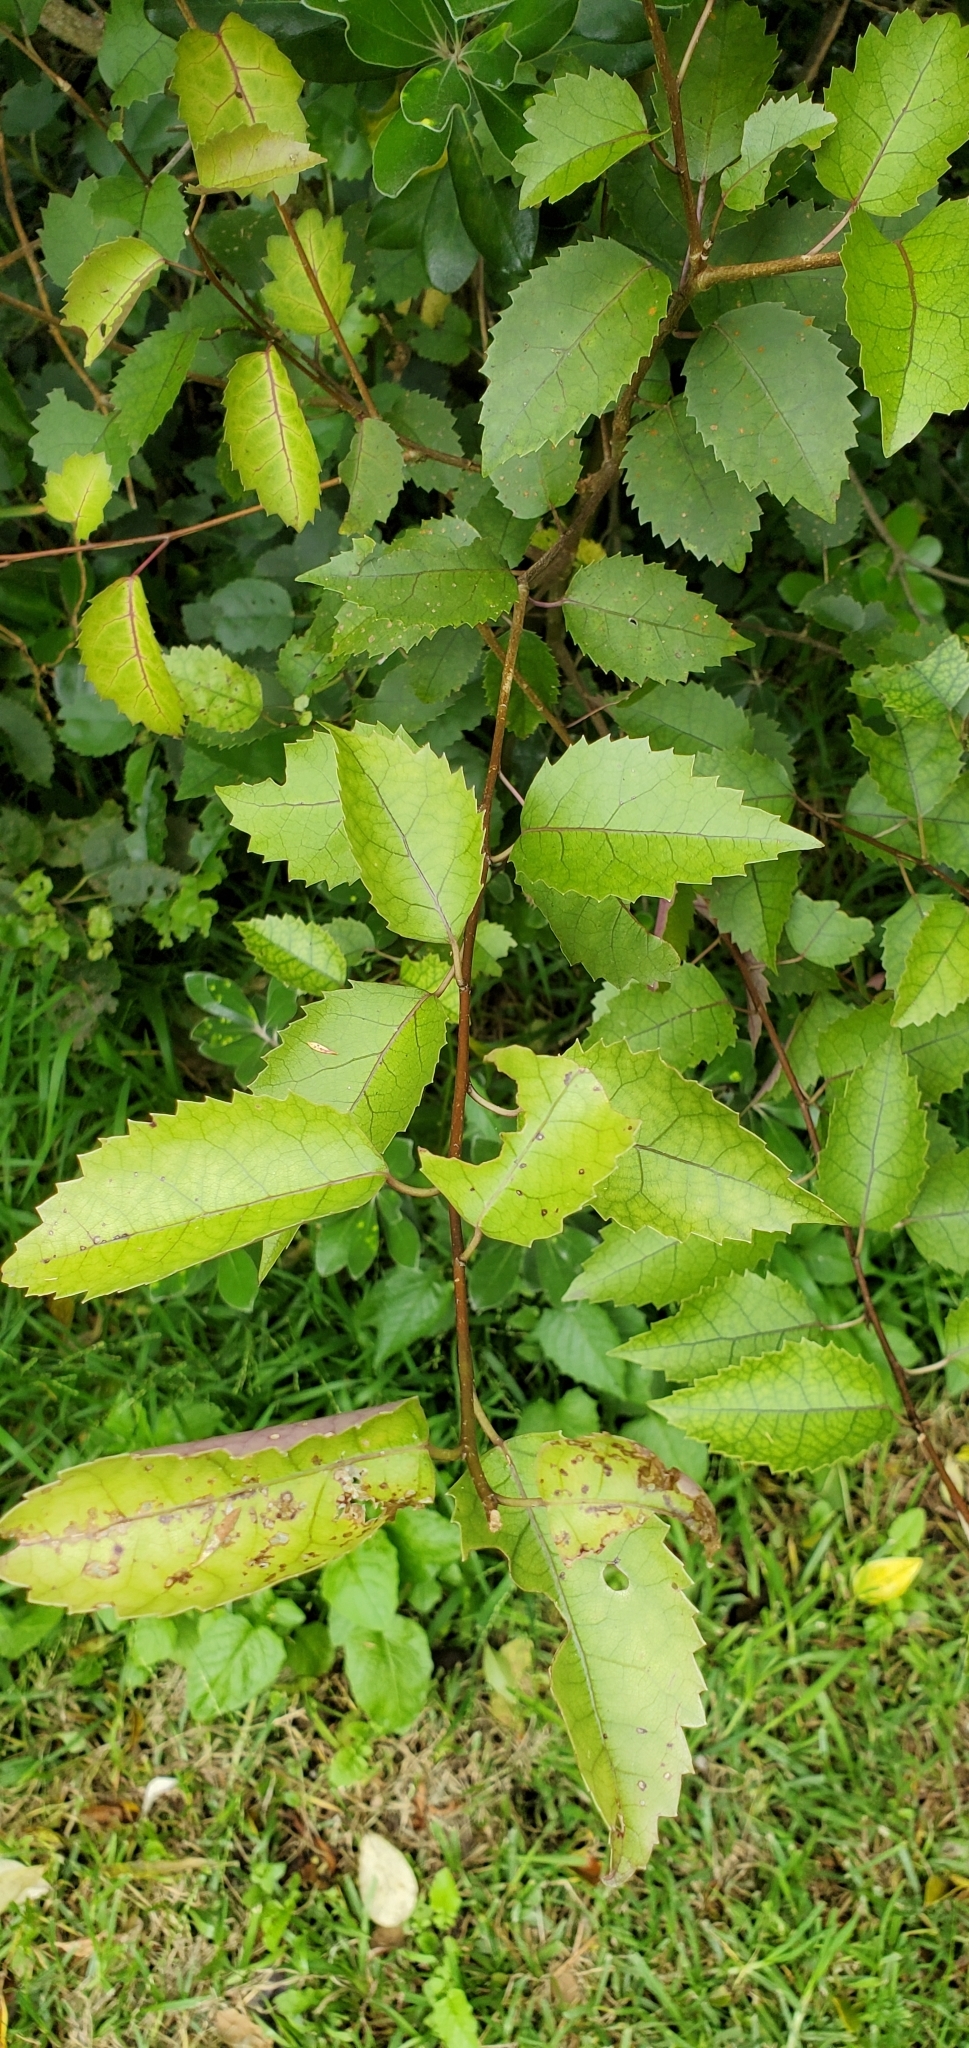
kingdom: Plantae
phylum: Tracheophyta
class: Magnoliopsida
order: Malvales
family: Malvaceae
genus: Hoheria
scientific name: Hoheria populnea
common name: Lacebark
